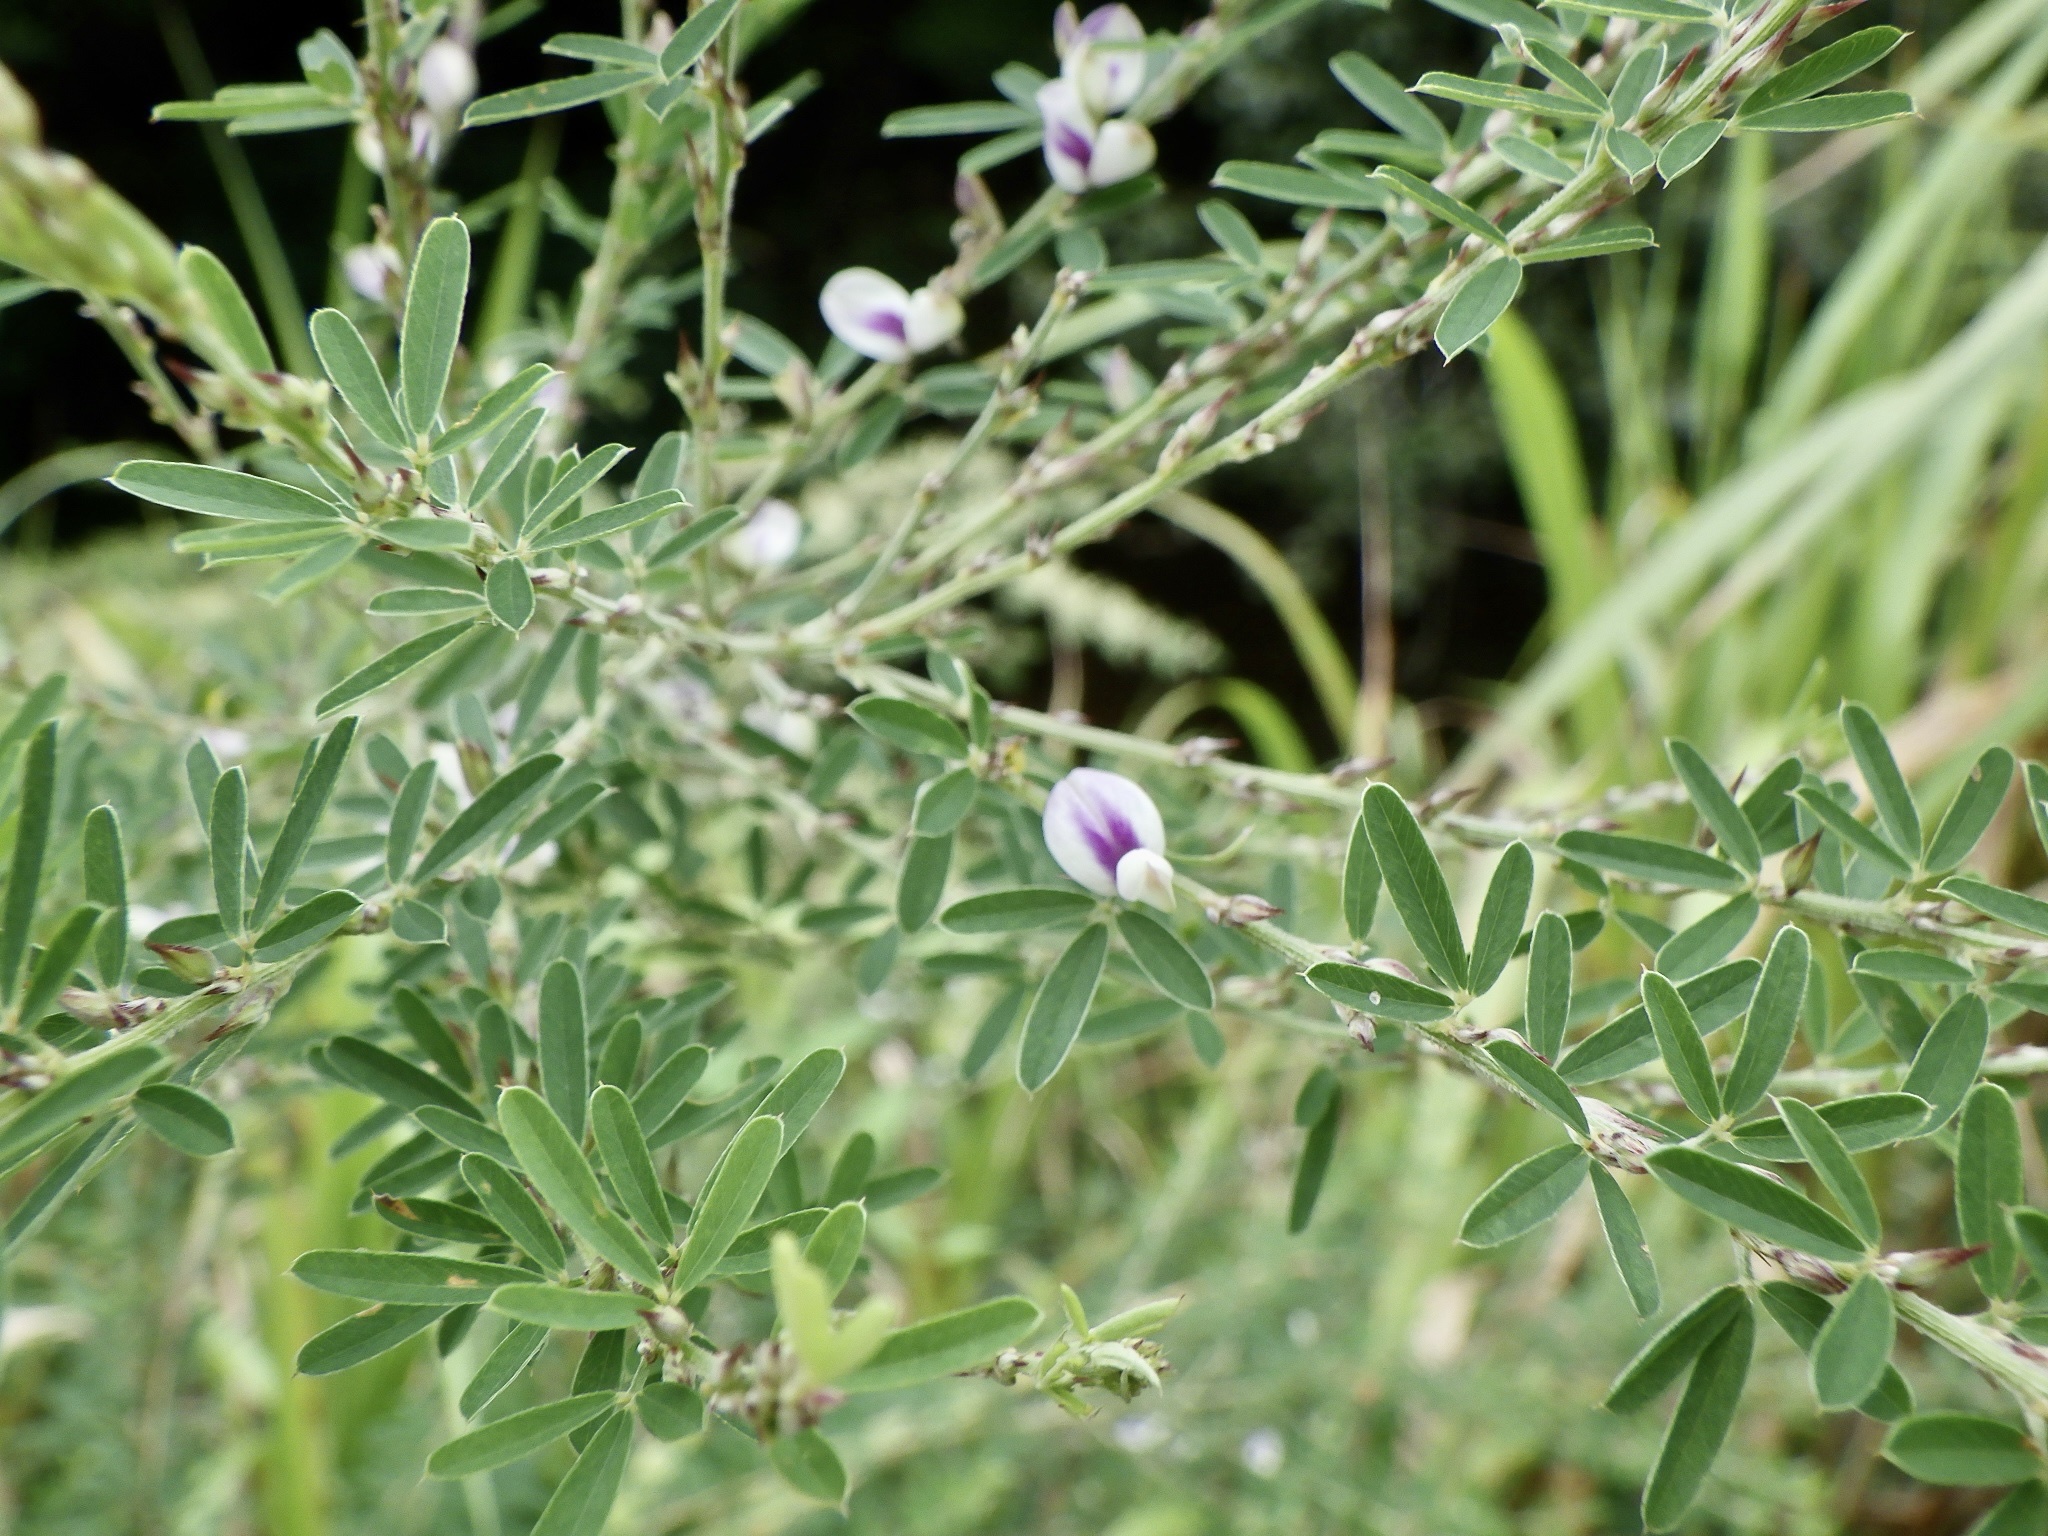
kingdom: Plantae
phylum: Tracheophyta
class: Magnoliopsida
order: Fabales
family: Fabaceae
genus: Lespedeza
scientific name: Lespedeza cuneata
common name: Chinese bush-clover
